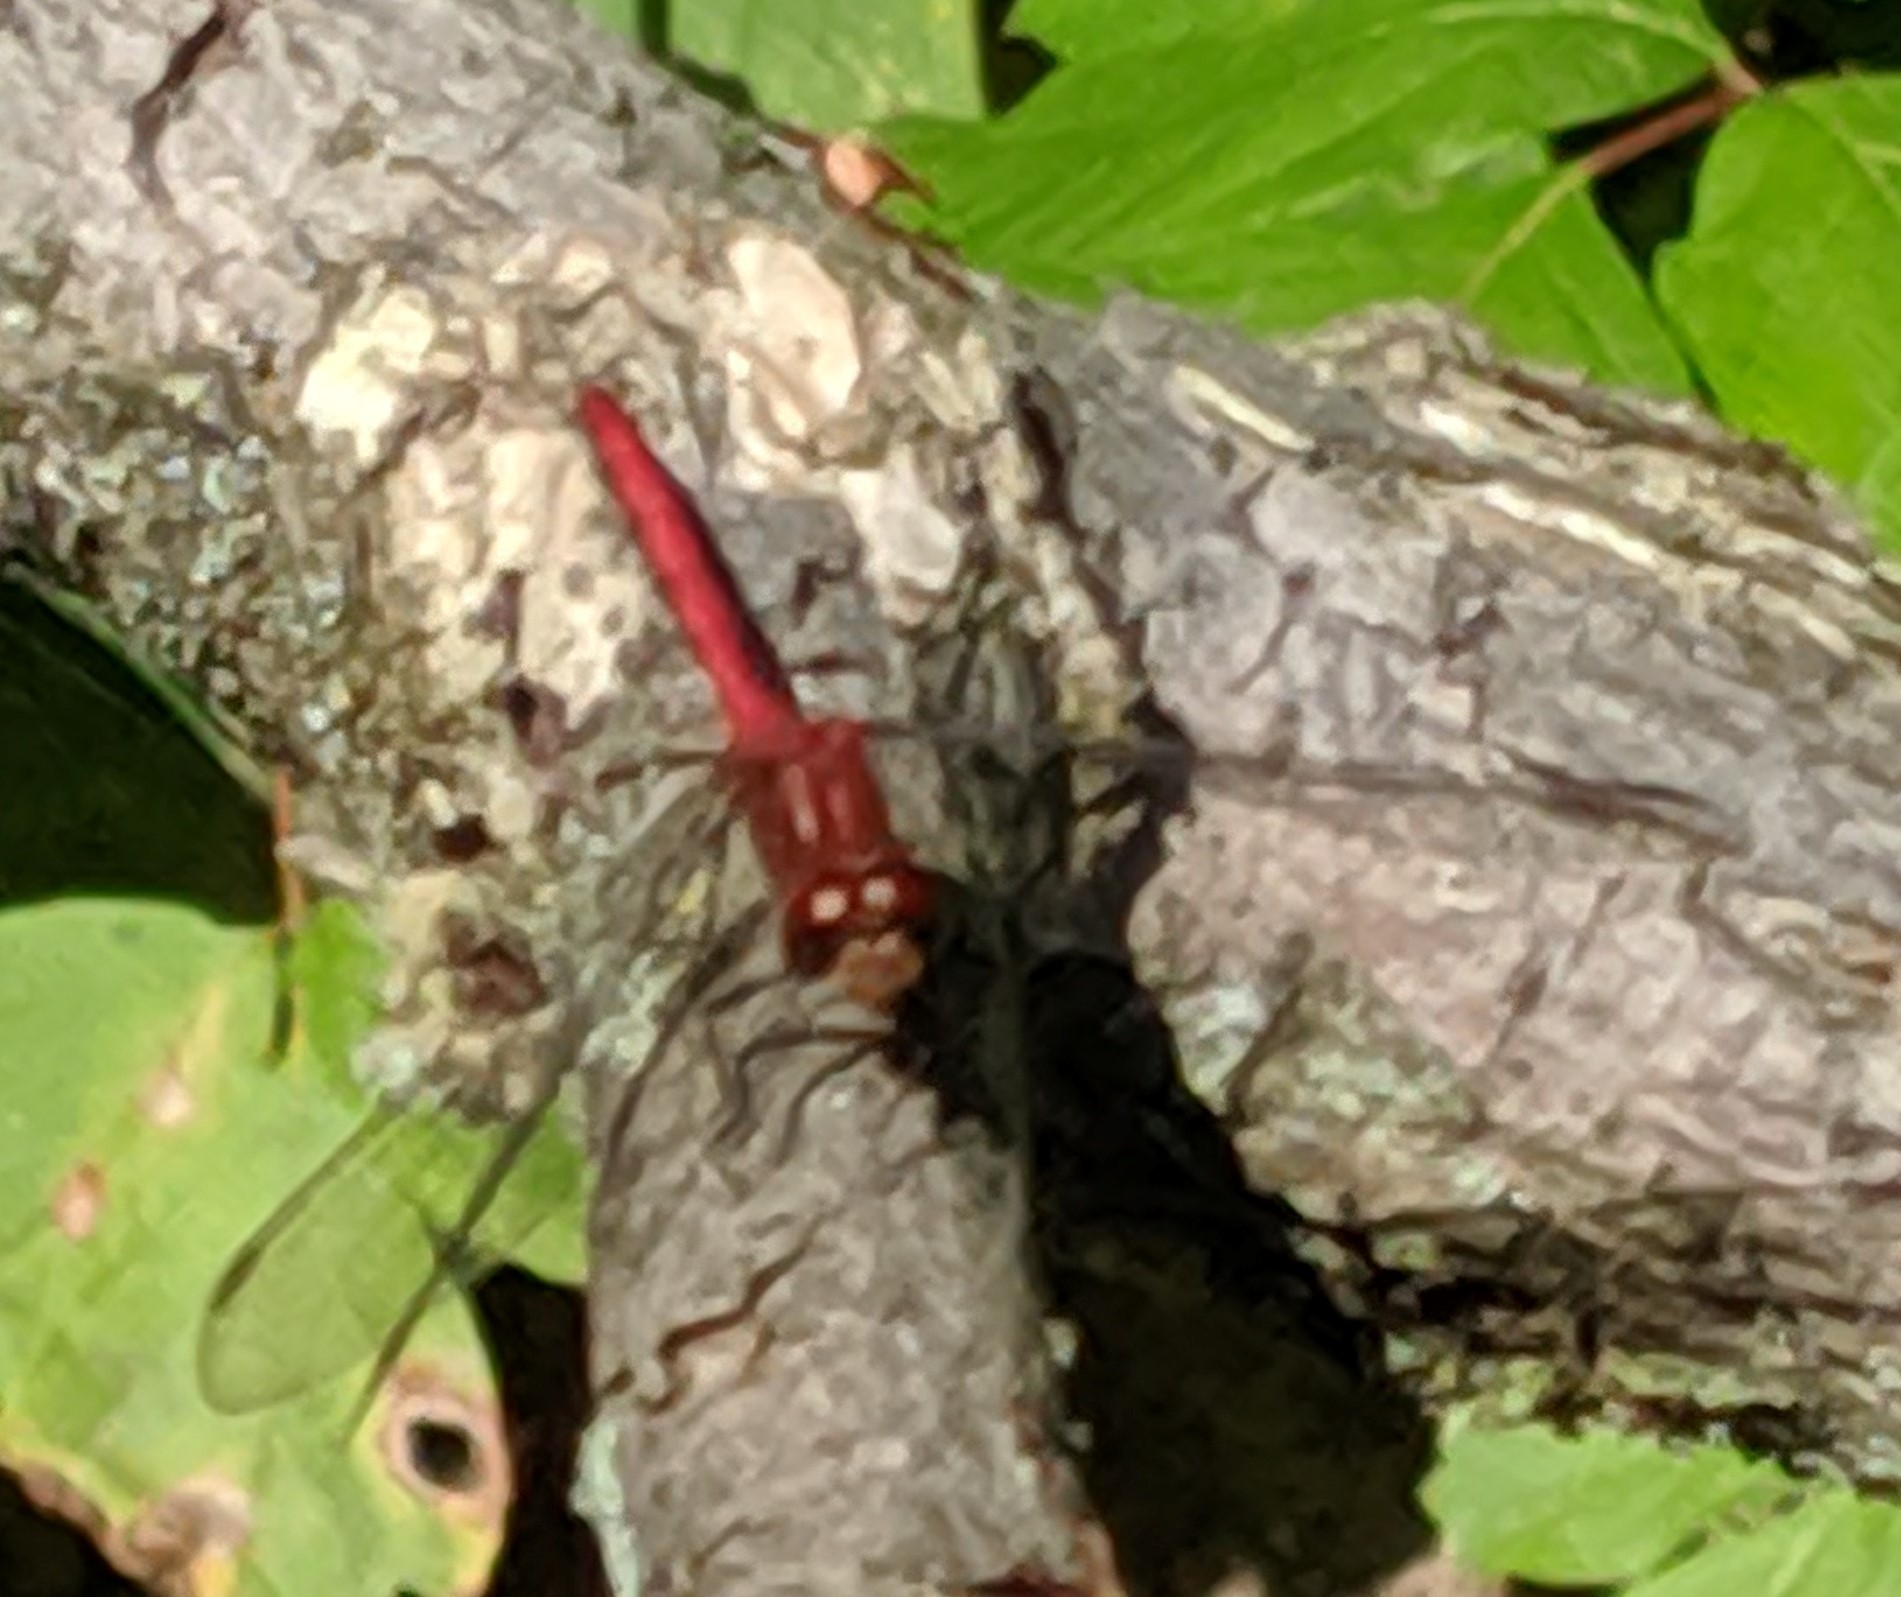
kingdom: Animalia
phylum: Arthropoda
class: Insecta
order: Odonata
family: Libellulidae
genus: Sympetrum
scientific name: Sympetrum
